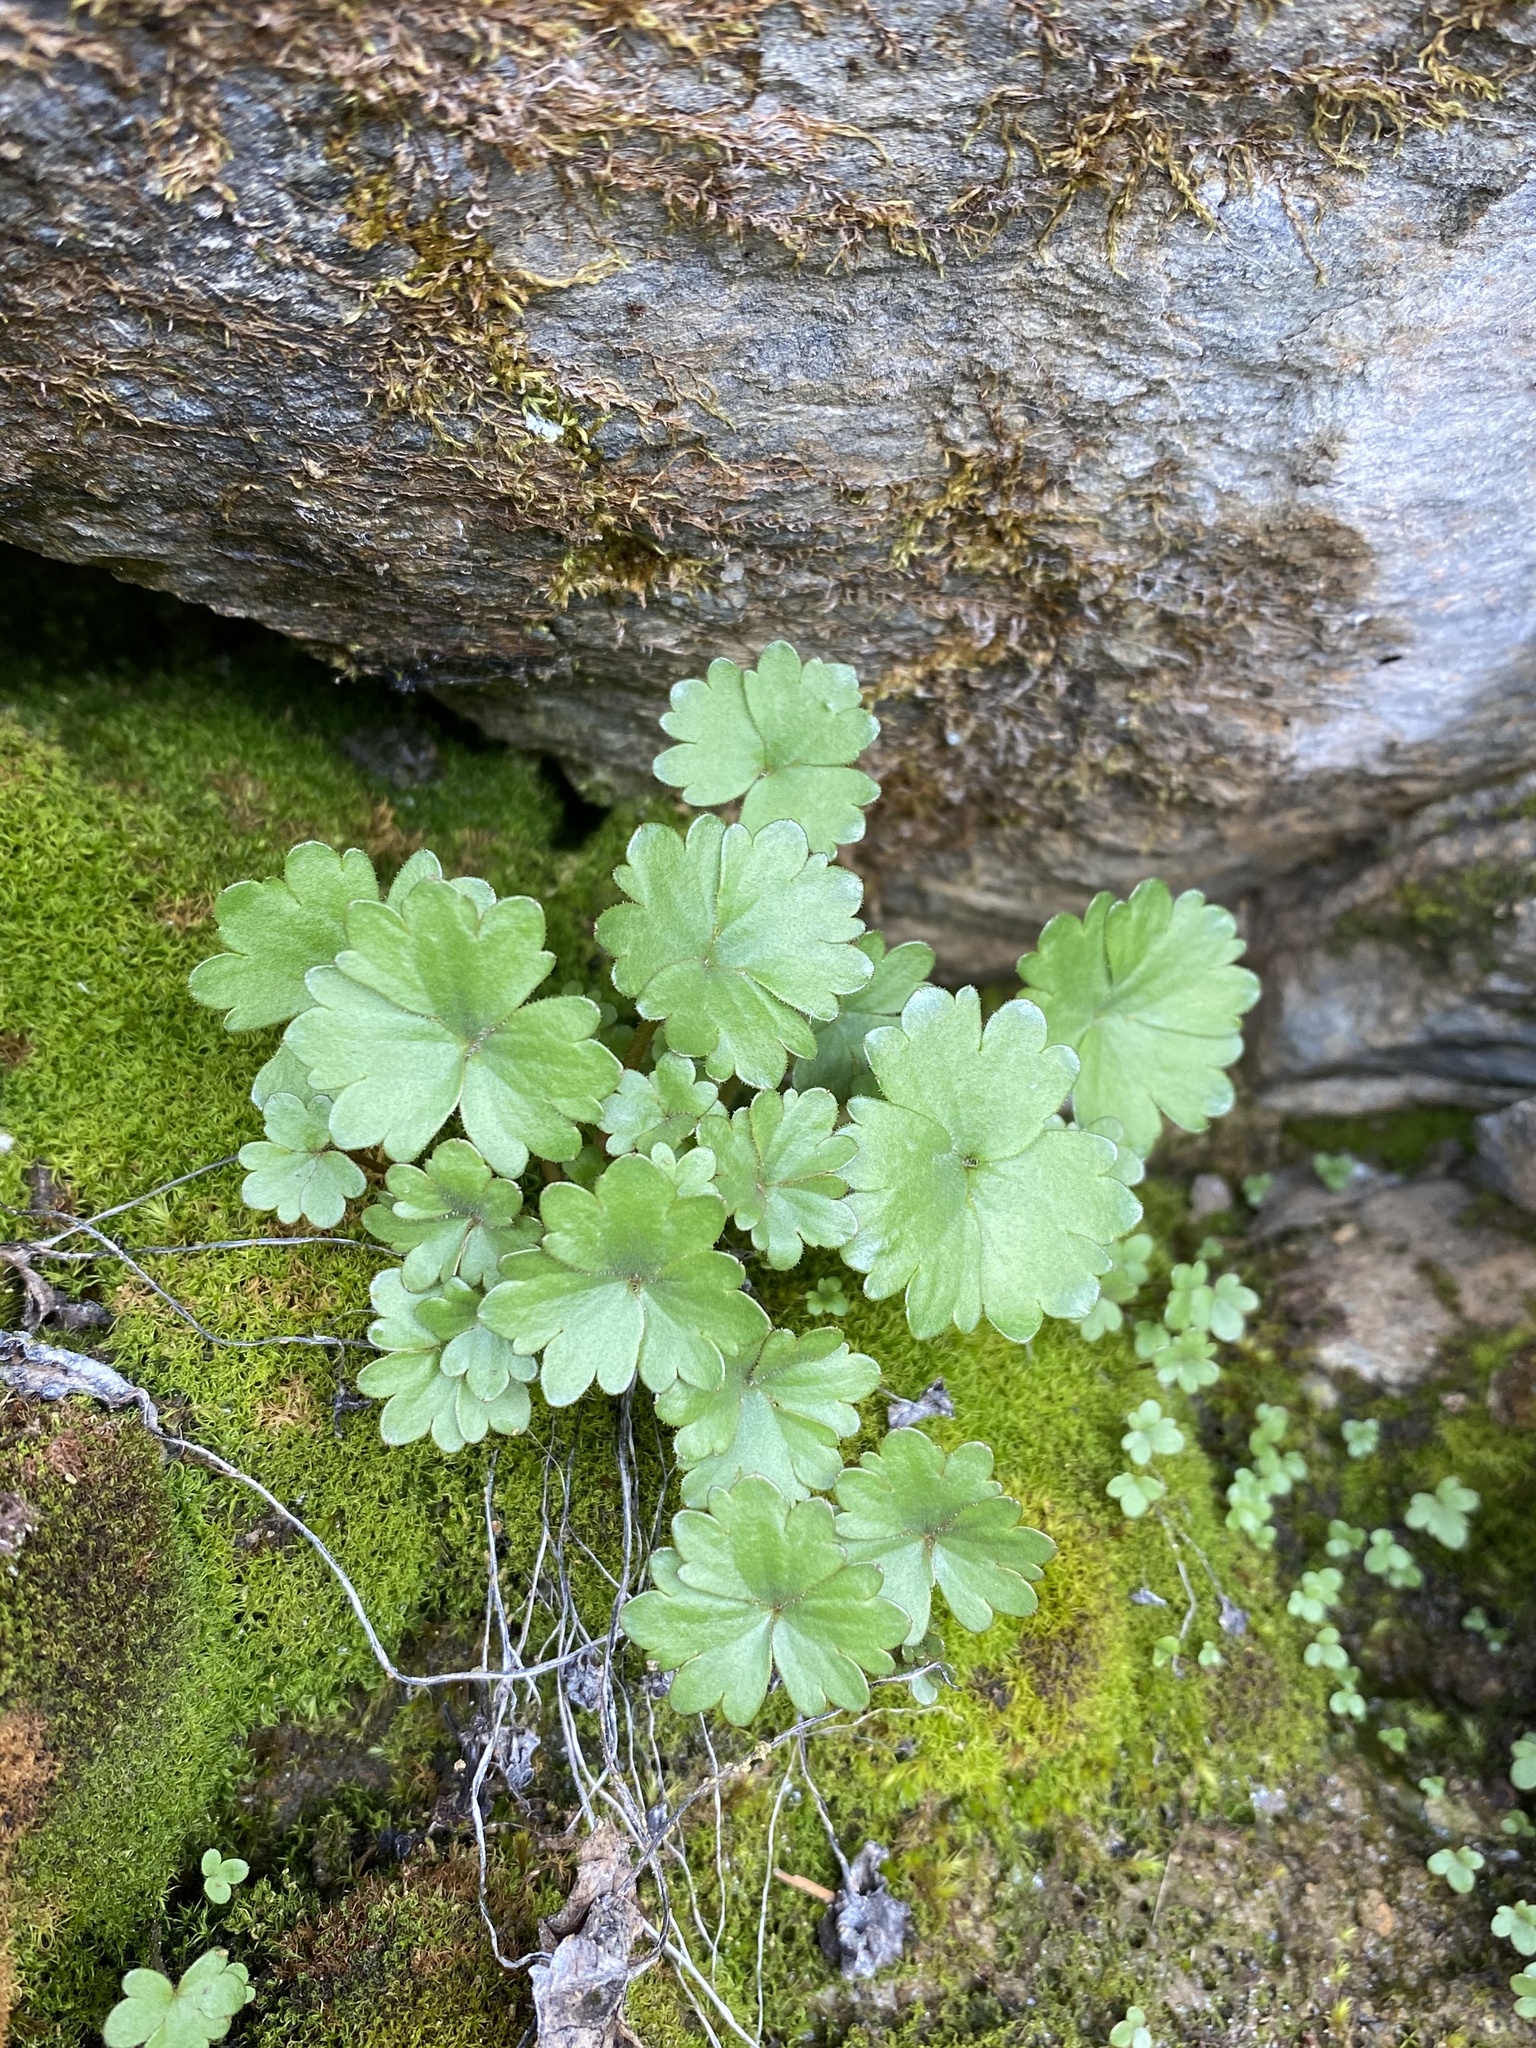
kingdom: Plantae
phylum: Tracheophyta
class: Magnoliopsida
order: Saxifragales
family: Saxifragaceae
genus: Hemieva
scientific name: Hemieva ranunculifolia
